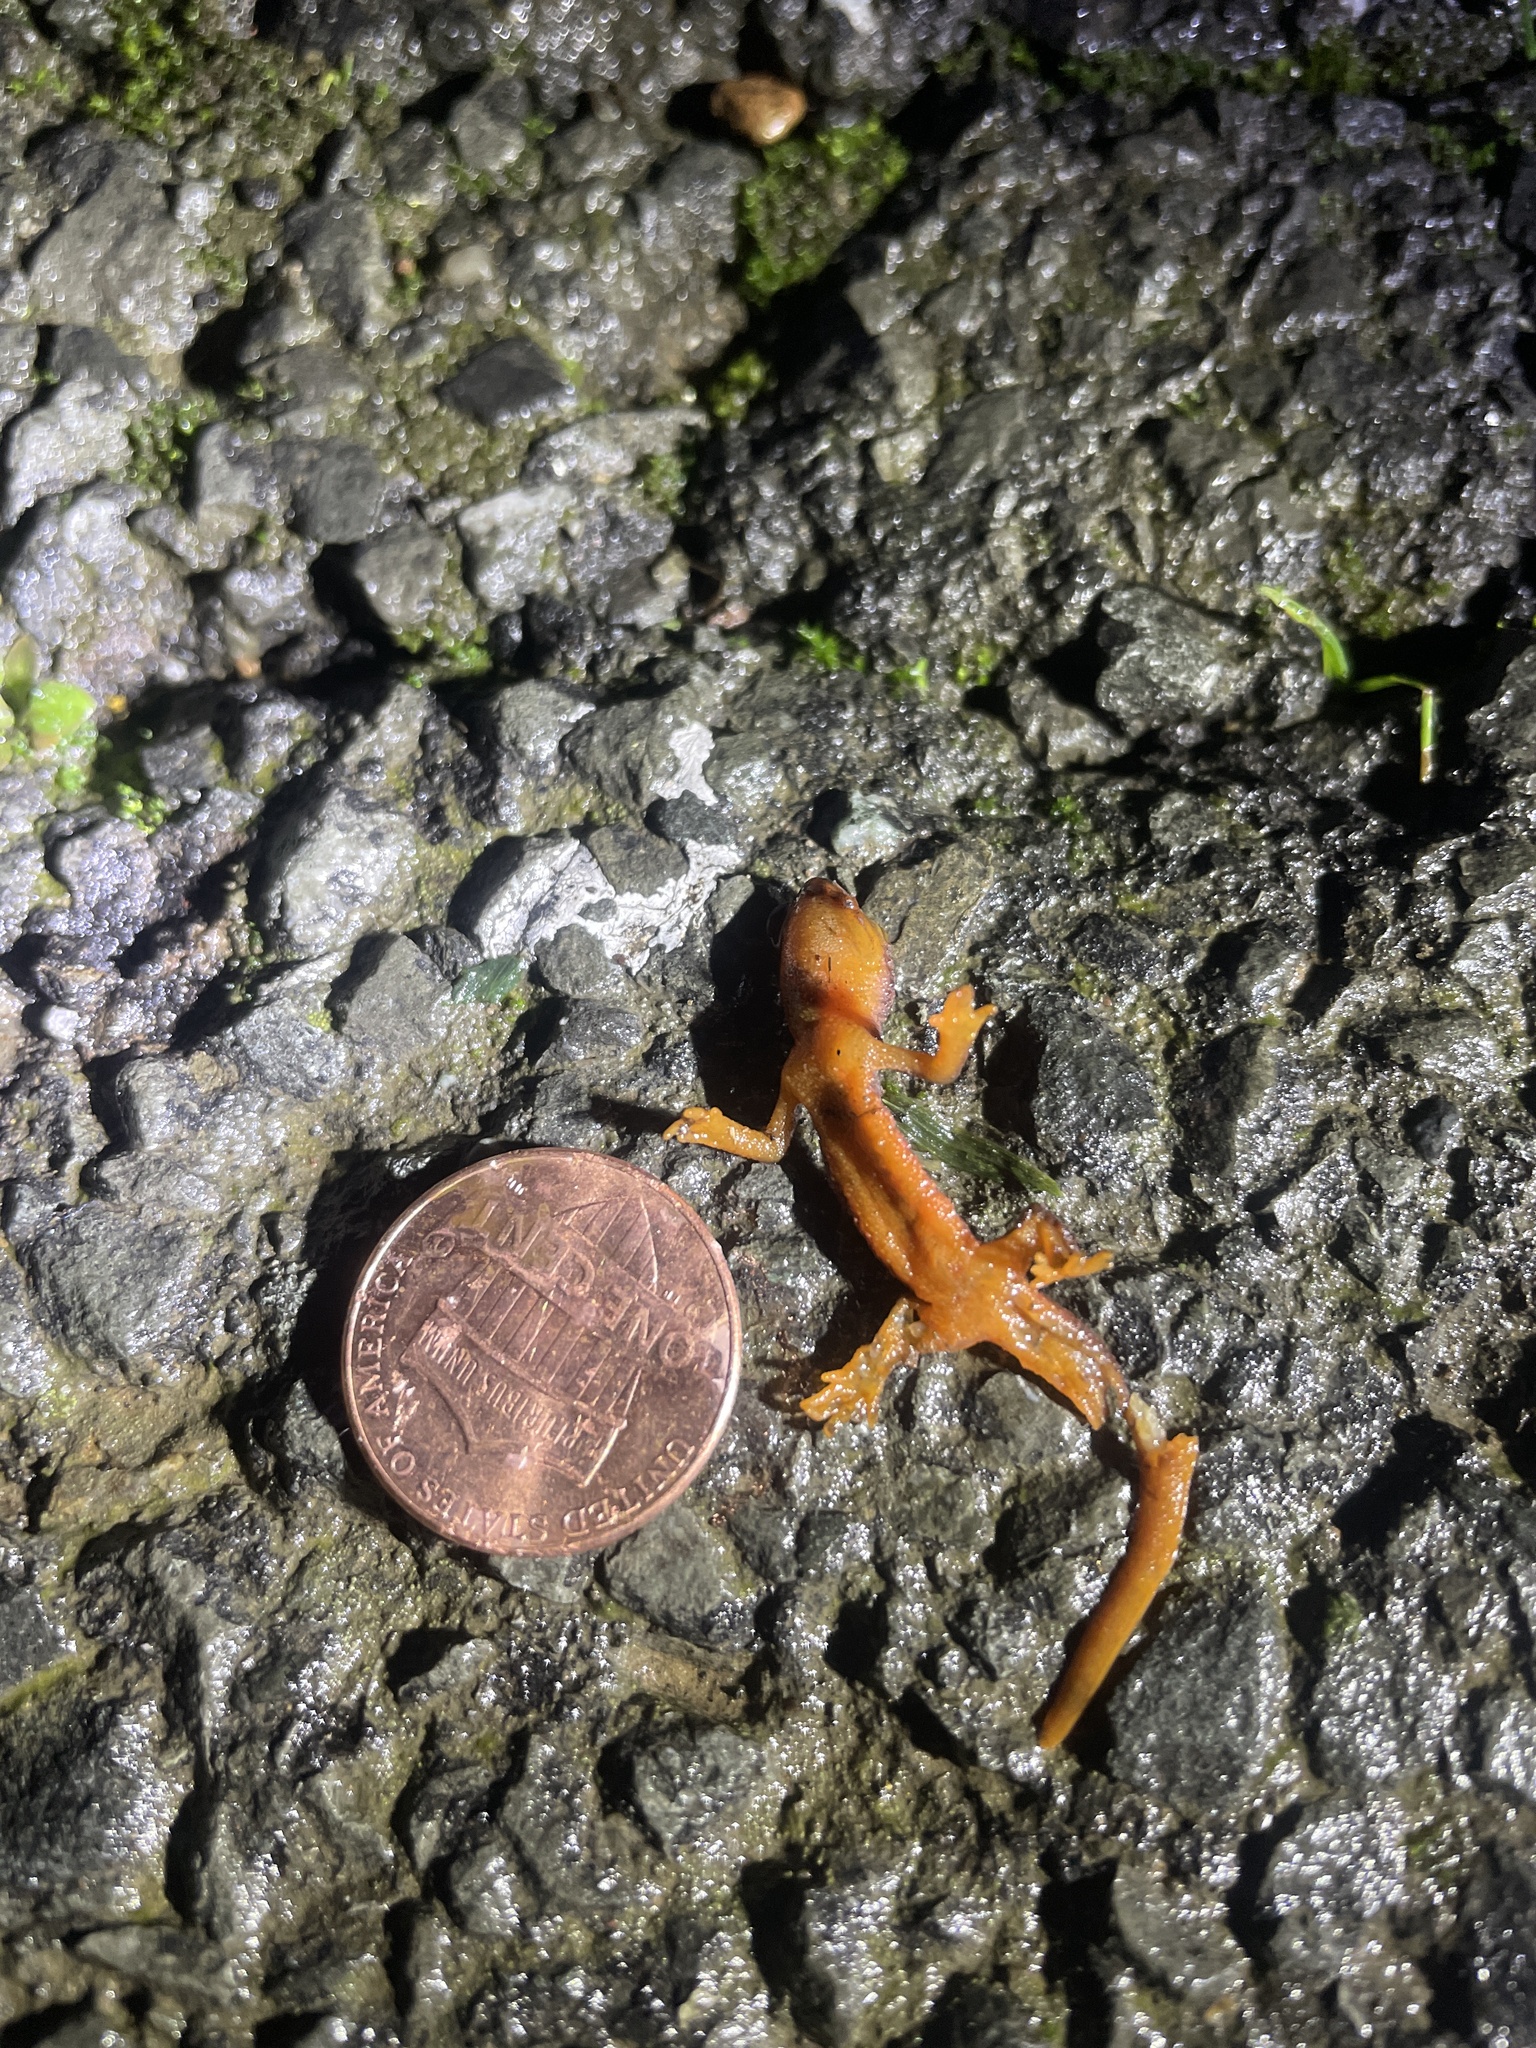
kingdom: Animalia
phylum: Chordata
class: Amphibia
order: Caudata
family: Salamandridae
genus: Taricha
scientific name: Taricha
